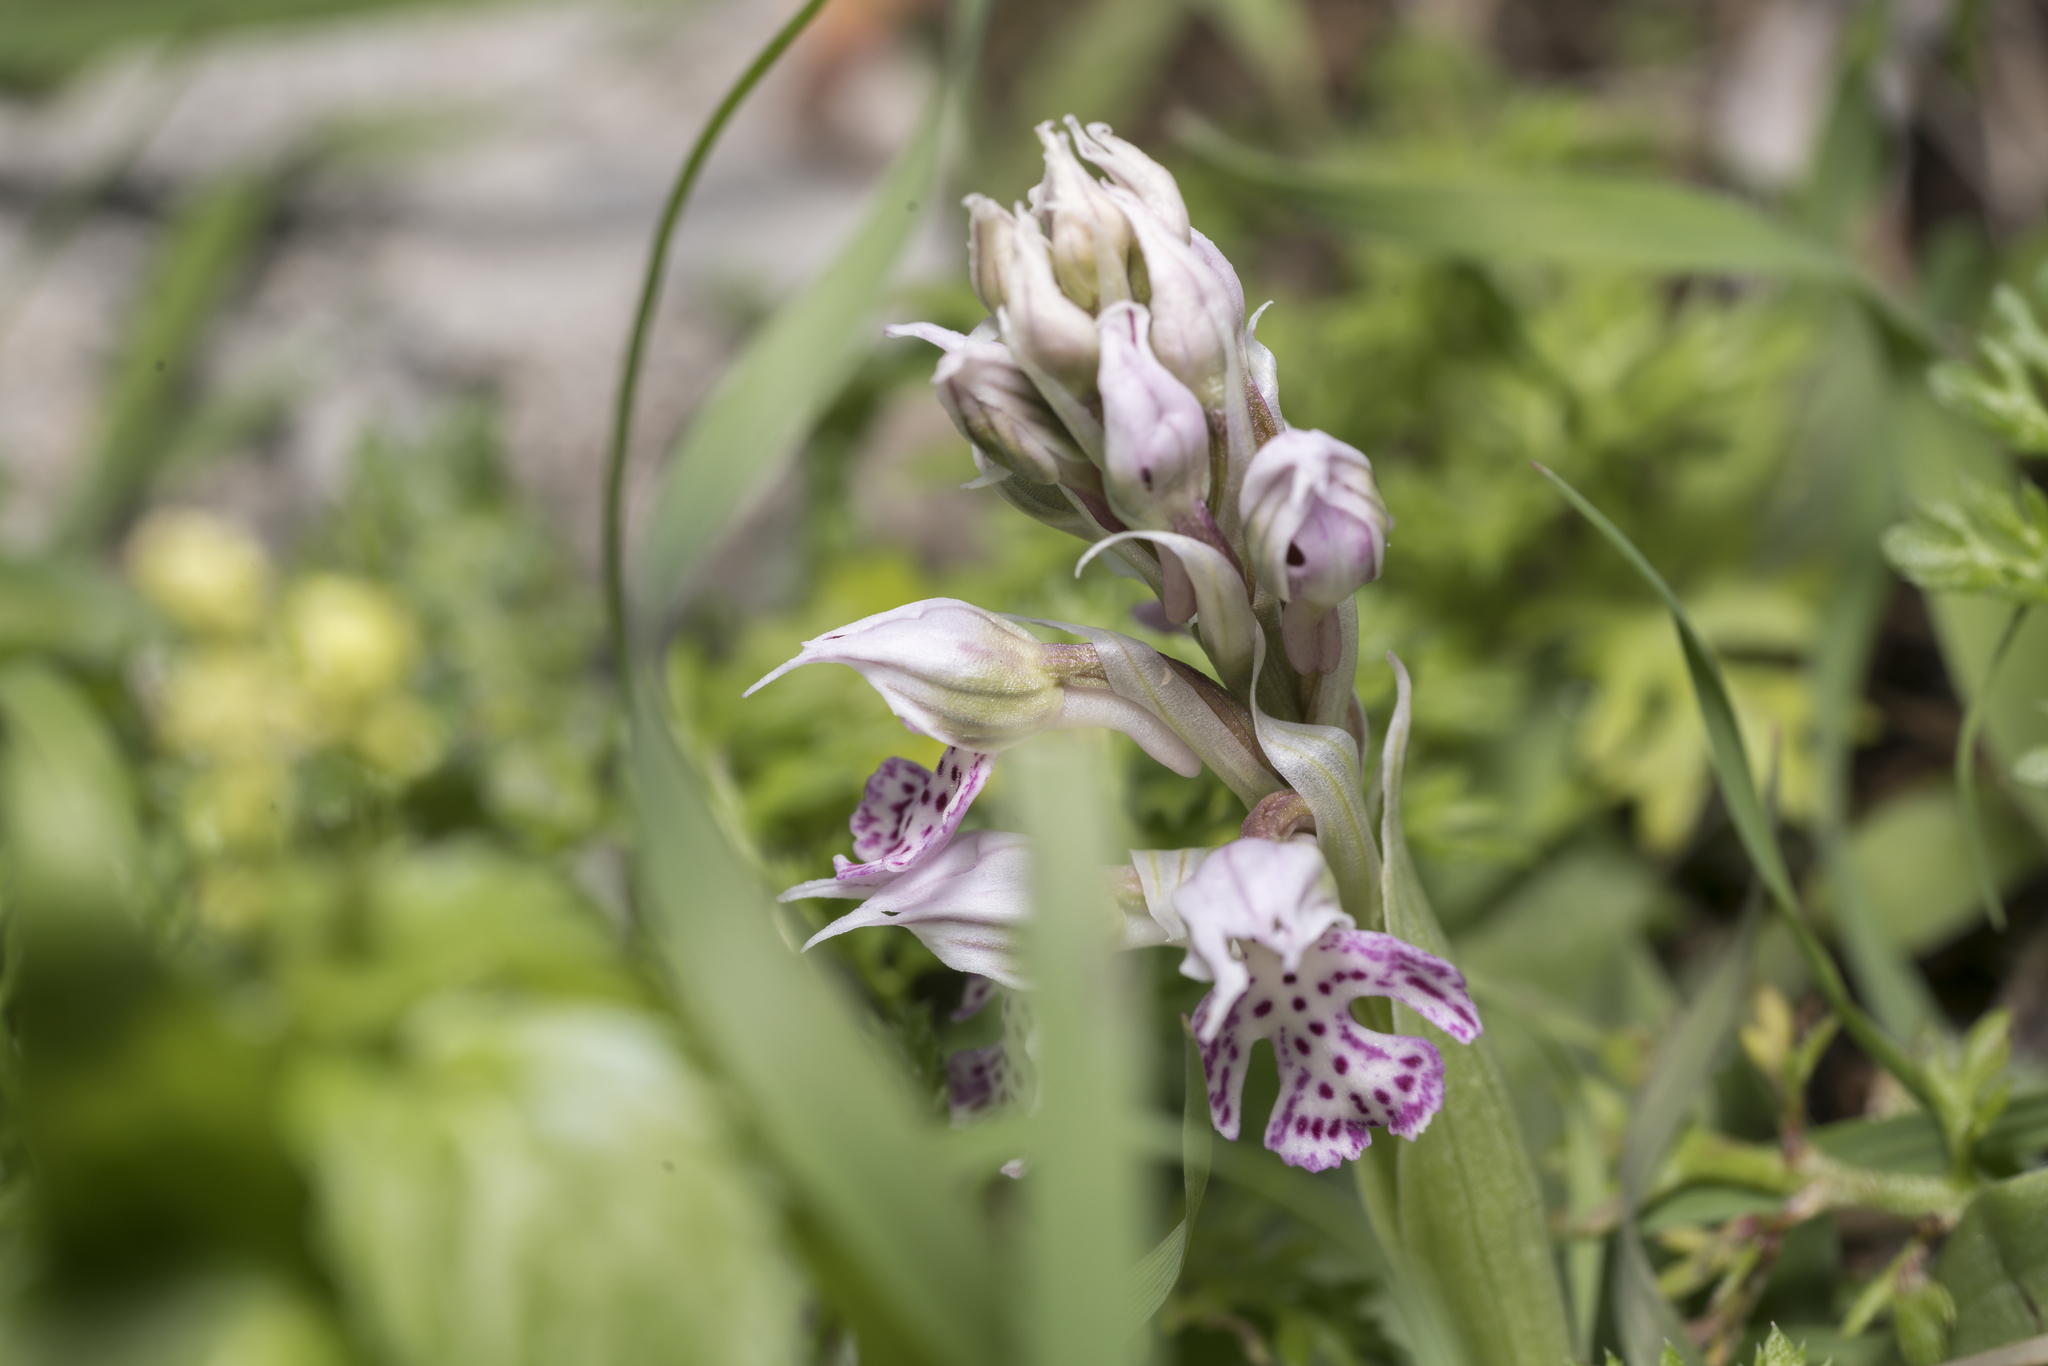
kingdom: Plantae
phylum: Tracheophyta
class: Liliopsida
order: Asparagales
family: Orchidaceae
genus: Neotinea
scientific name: Neotinea lactea
